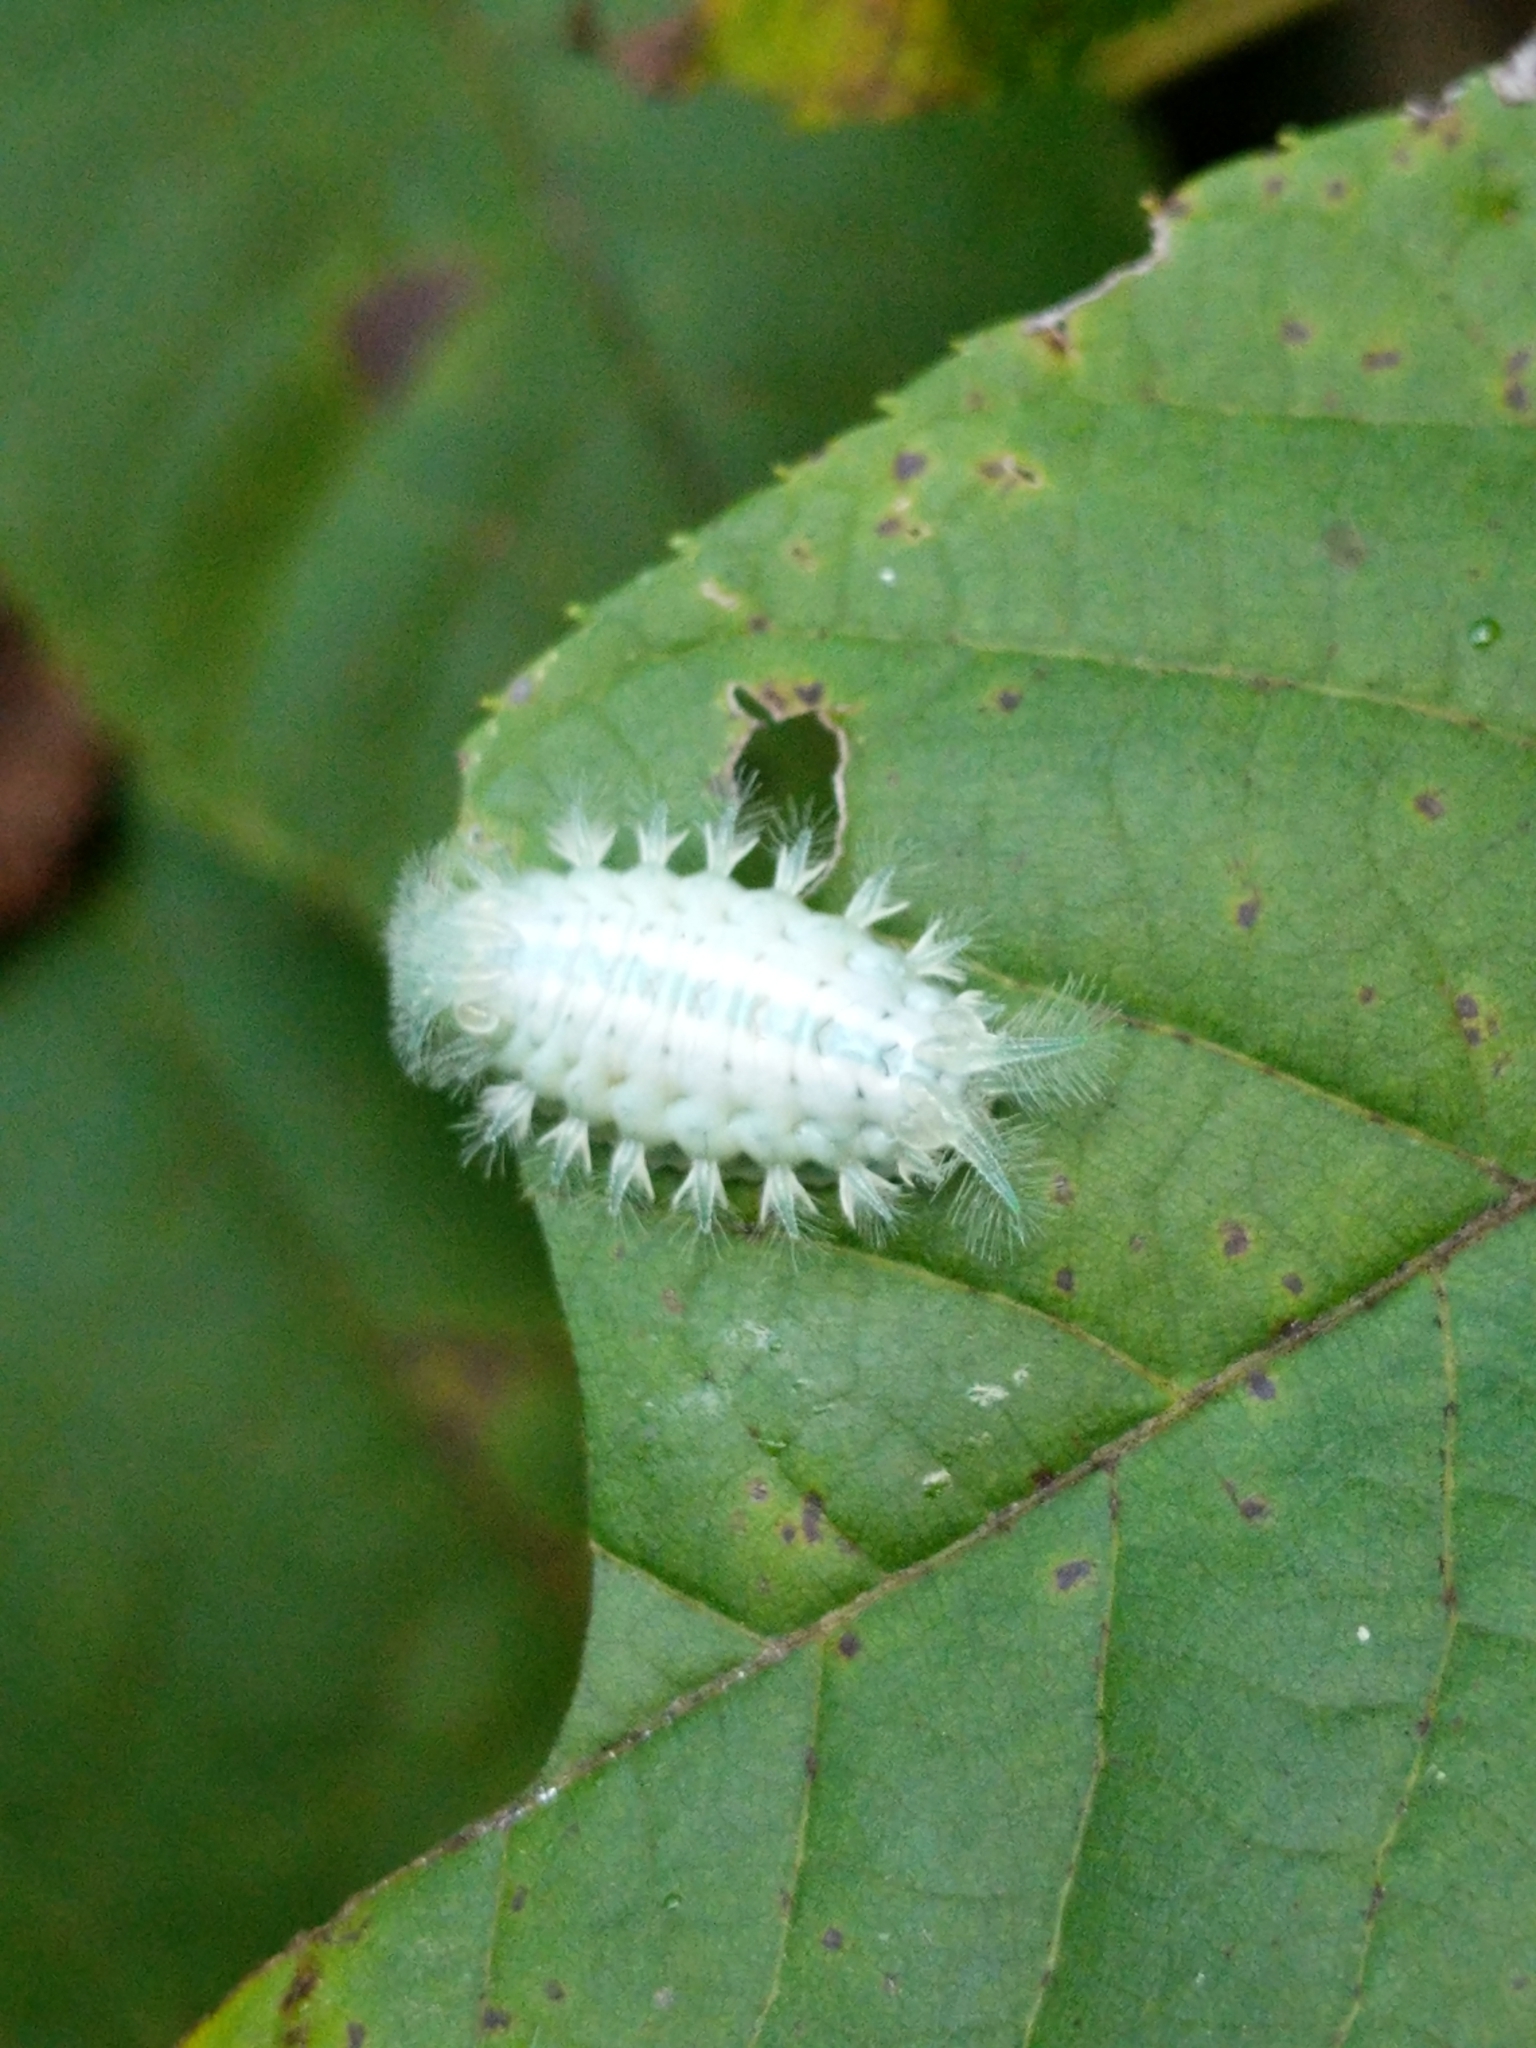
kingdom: Animalia
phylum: Arthropoda
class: Insecta
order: Lepidoptera
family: Limacodidae
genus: Isochaetes
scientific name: Isochaetes beutenmuelleri
